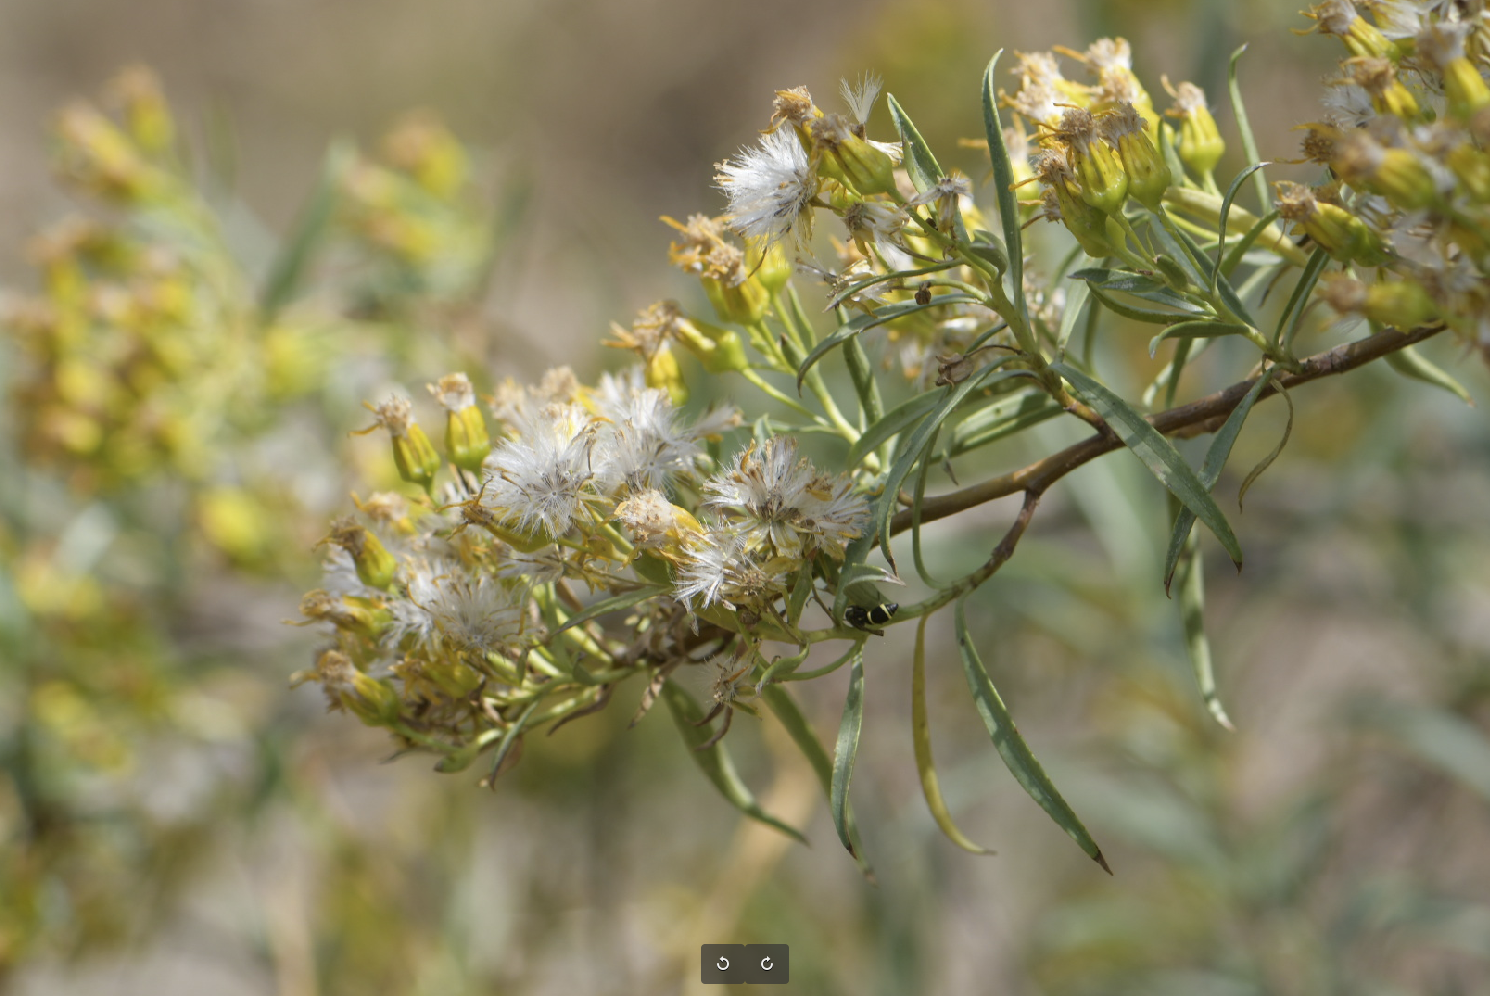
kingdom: Plantae
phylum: Tracheophyta
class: Magnoliopsida
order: Asterales
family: Asteraceae
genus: Barkleyanthus
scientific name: Barkleyanthus salicifolius
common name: Willow ragwort
